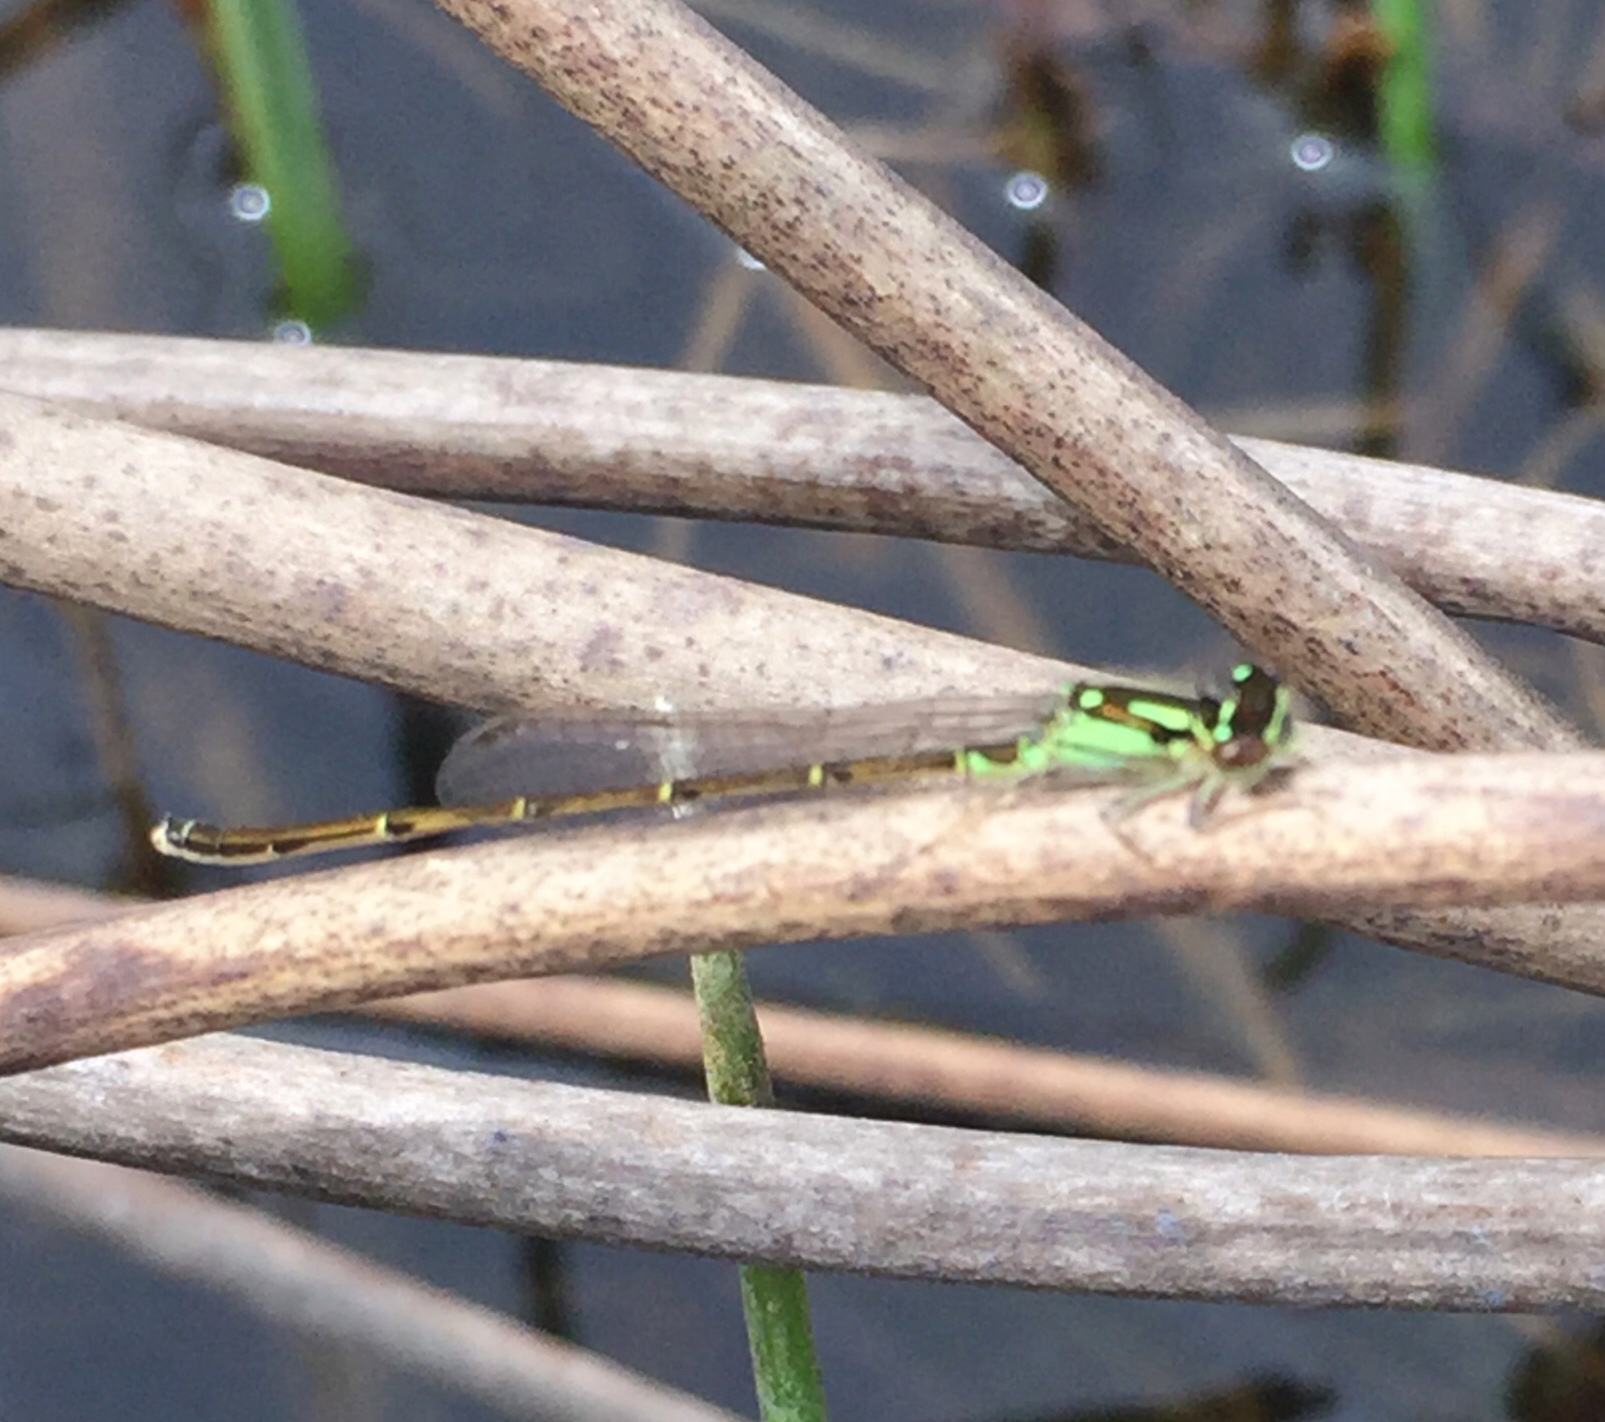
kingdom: Animalia
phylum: Arthropoda
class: Insecta
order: Odonata
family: Coenagrionidae
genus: Ischnura
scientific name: Ischnura posita
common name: Fragile forktail
